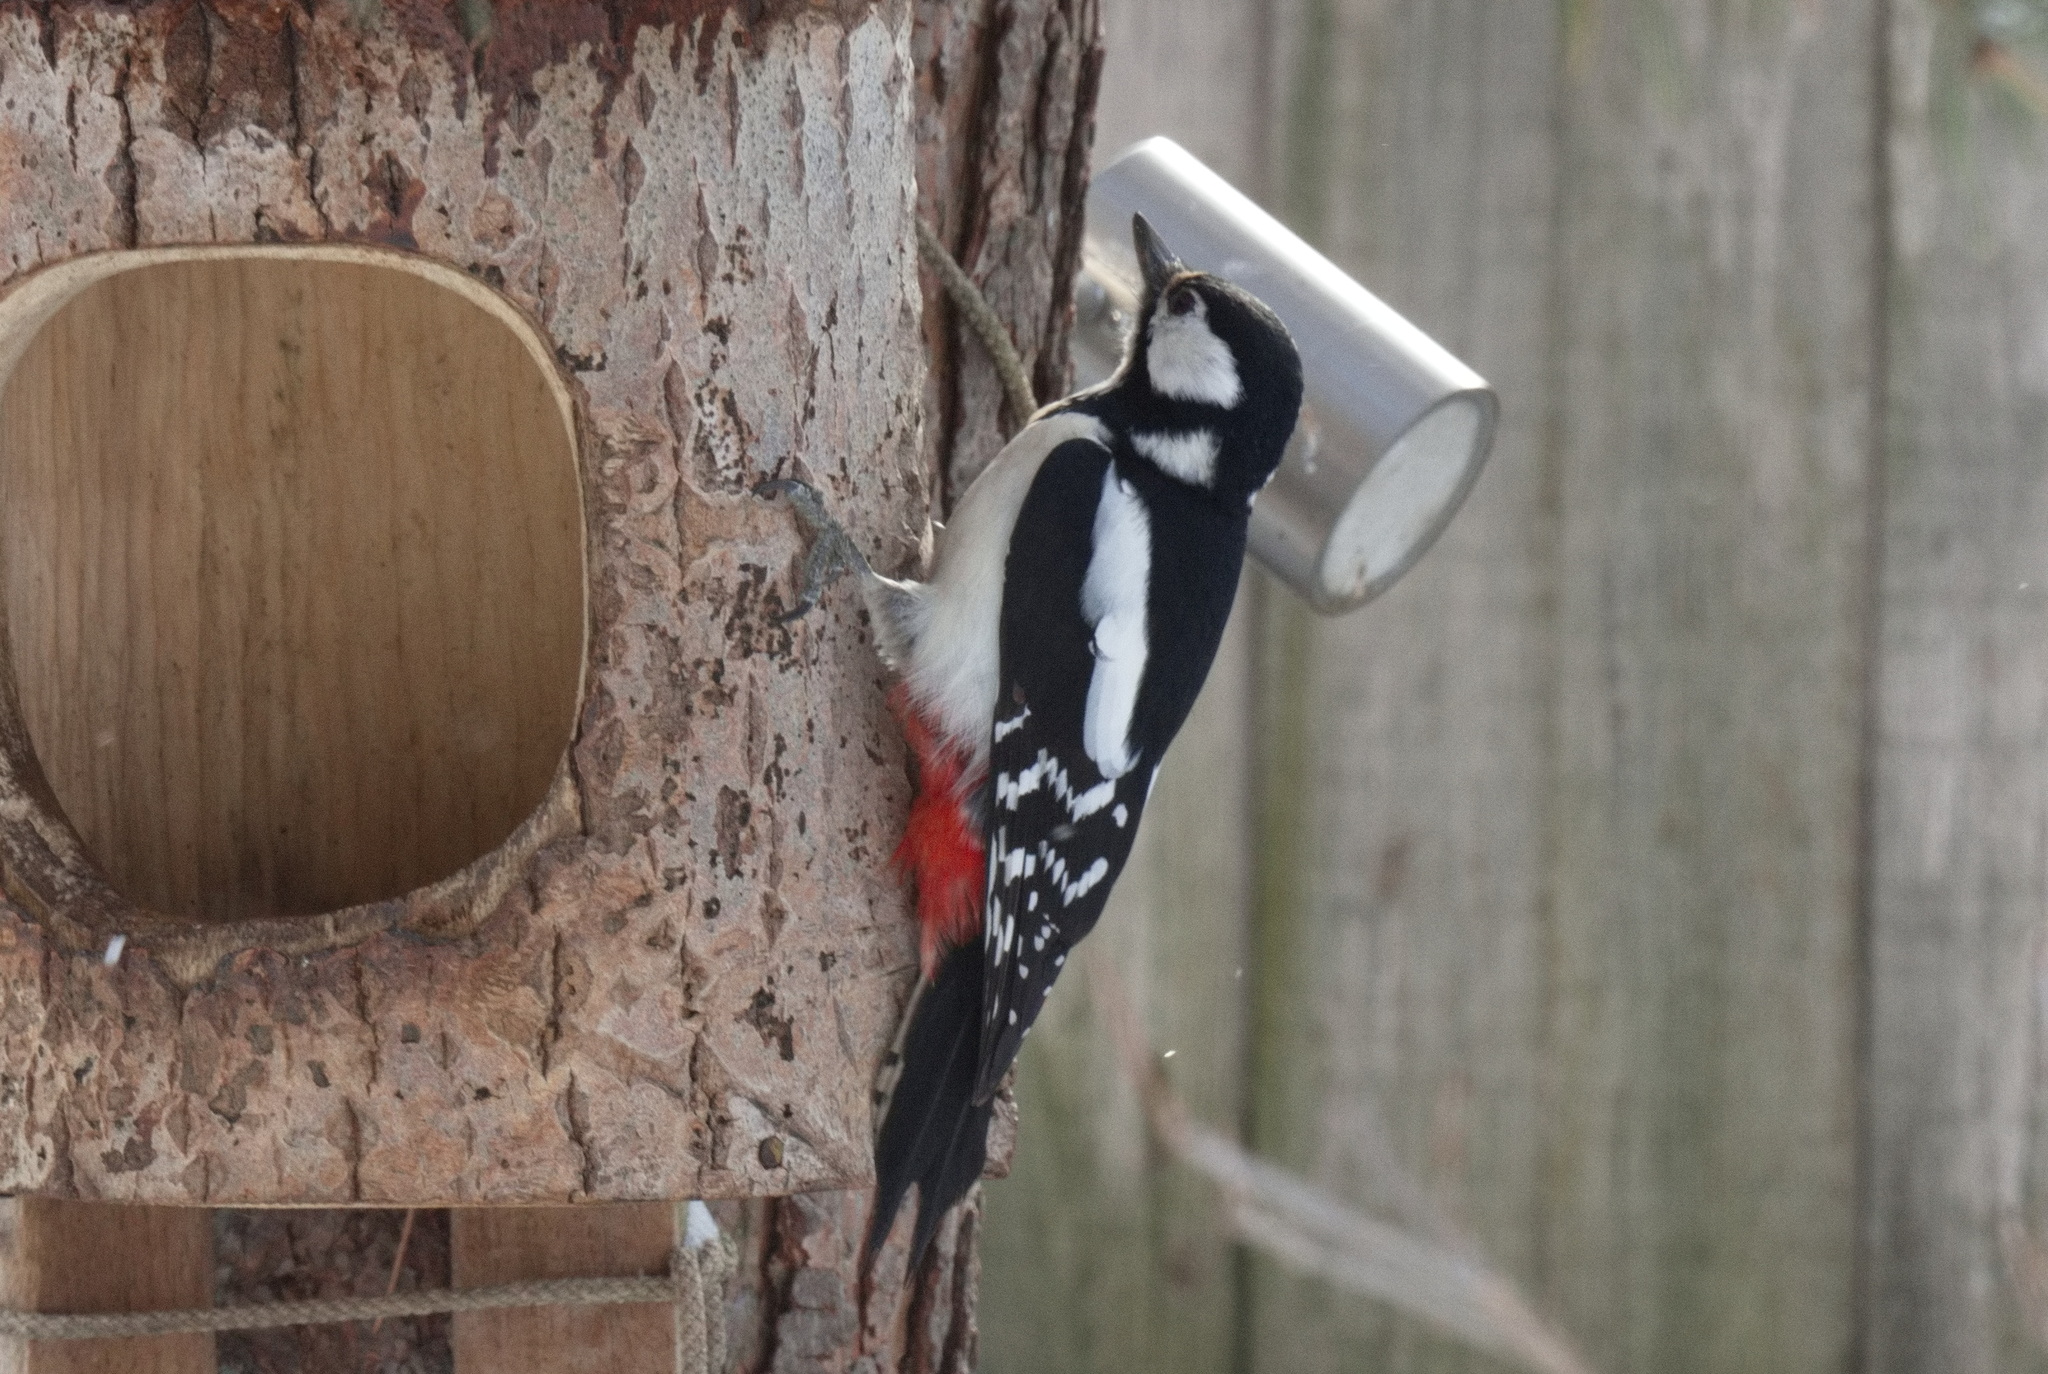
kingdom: Animalia
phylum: Chordata
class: Aves
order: Piciformes
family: Picidae
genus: Dendrocopos
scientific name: Dendrocopos major
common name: Great spotted woodpecker
